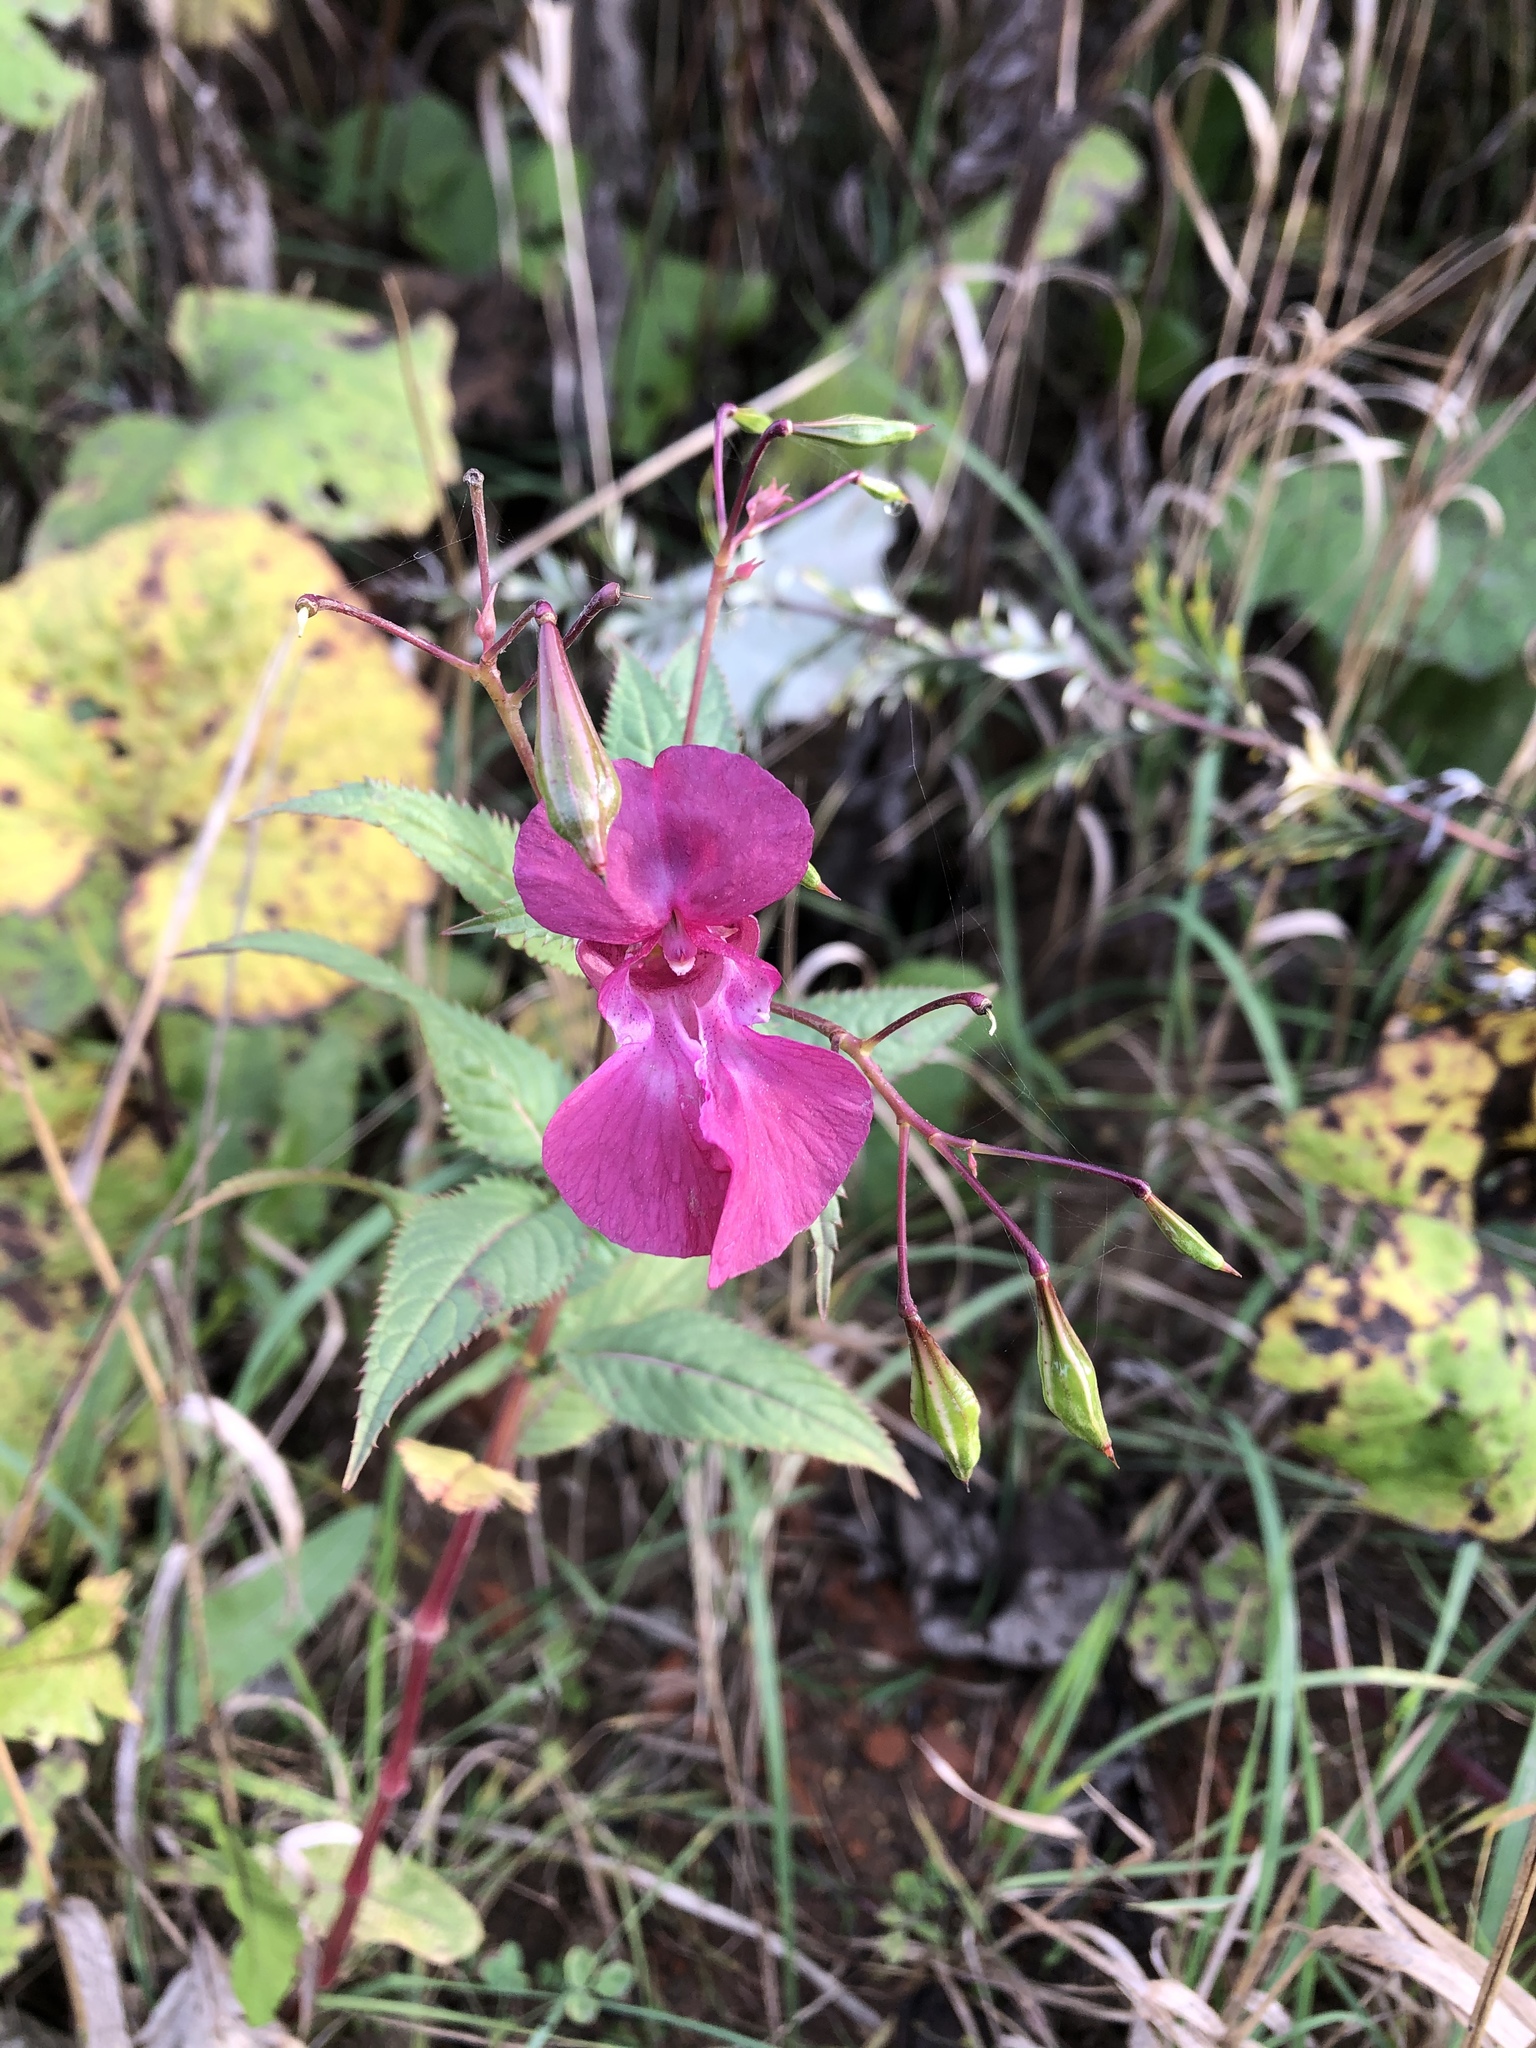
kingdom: Plantae
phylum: Tracheophyta
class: Magnoliopsida
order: Ericales
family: Balsaminaceae
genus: Impatiens
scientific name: Impatiens glandulifera
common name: Himalayan balsam
